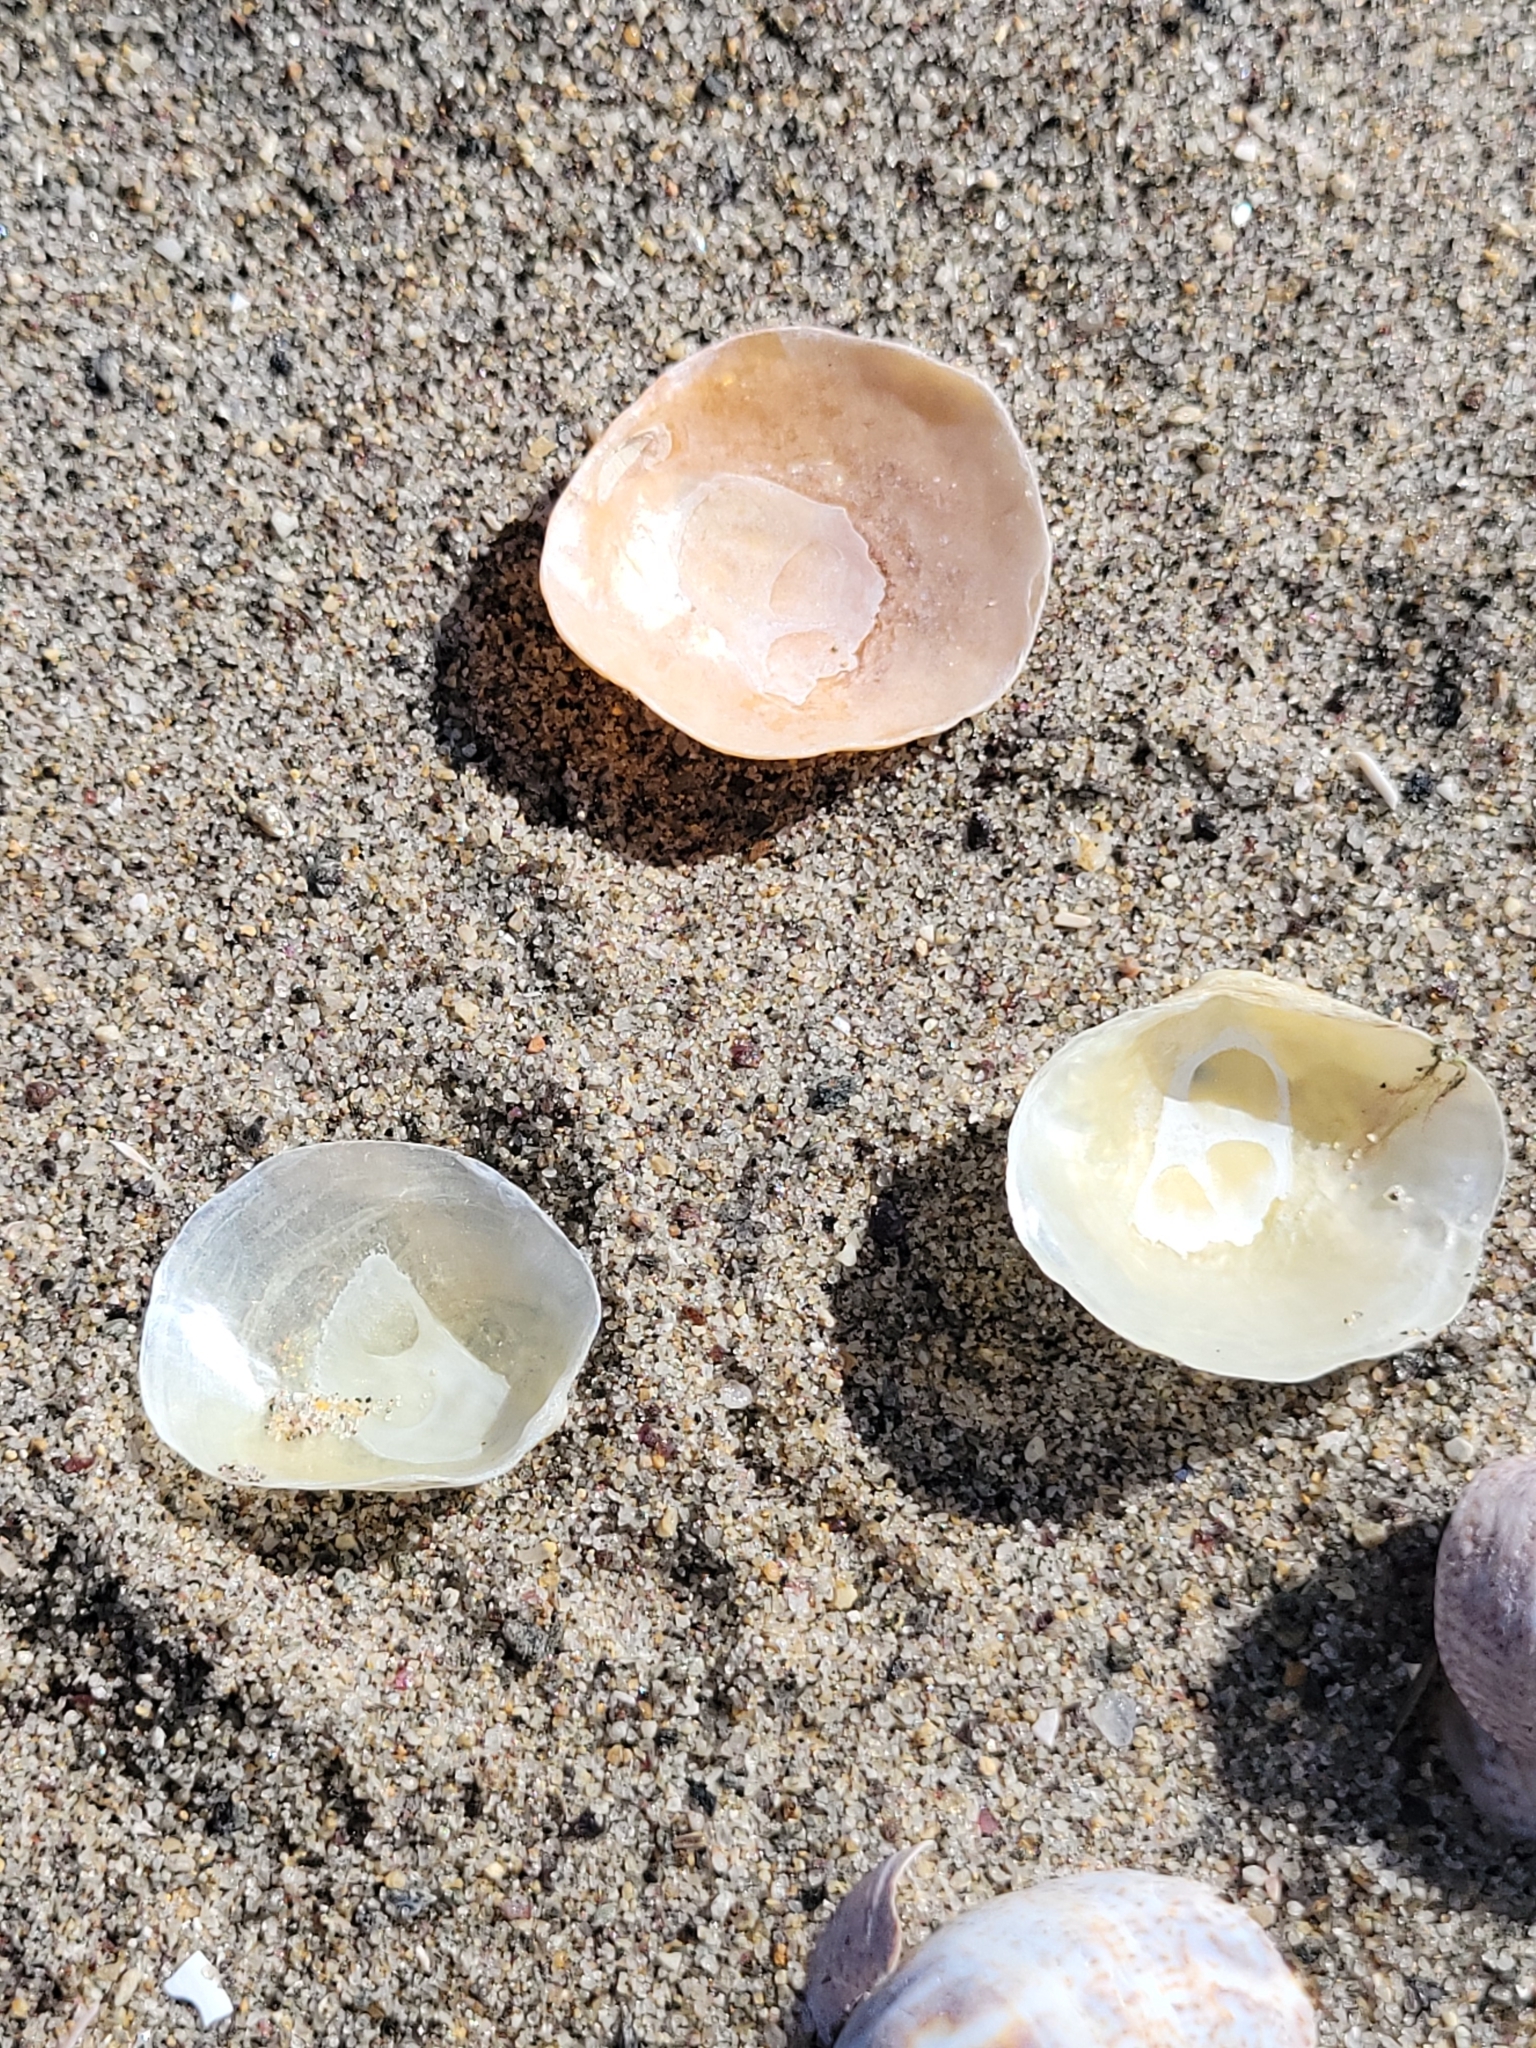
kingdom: Animalia
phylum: Mollusca
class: Bivalvia
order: Pectinida
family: Anomiidae
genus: Anomia
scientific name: Anomia simplex
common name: Common jingle shell
